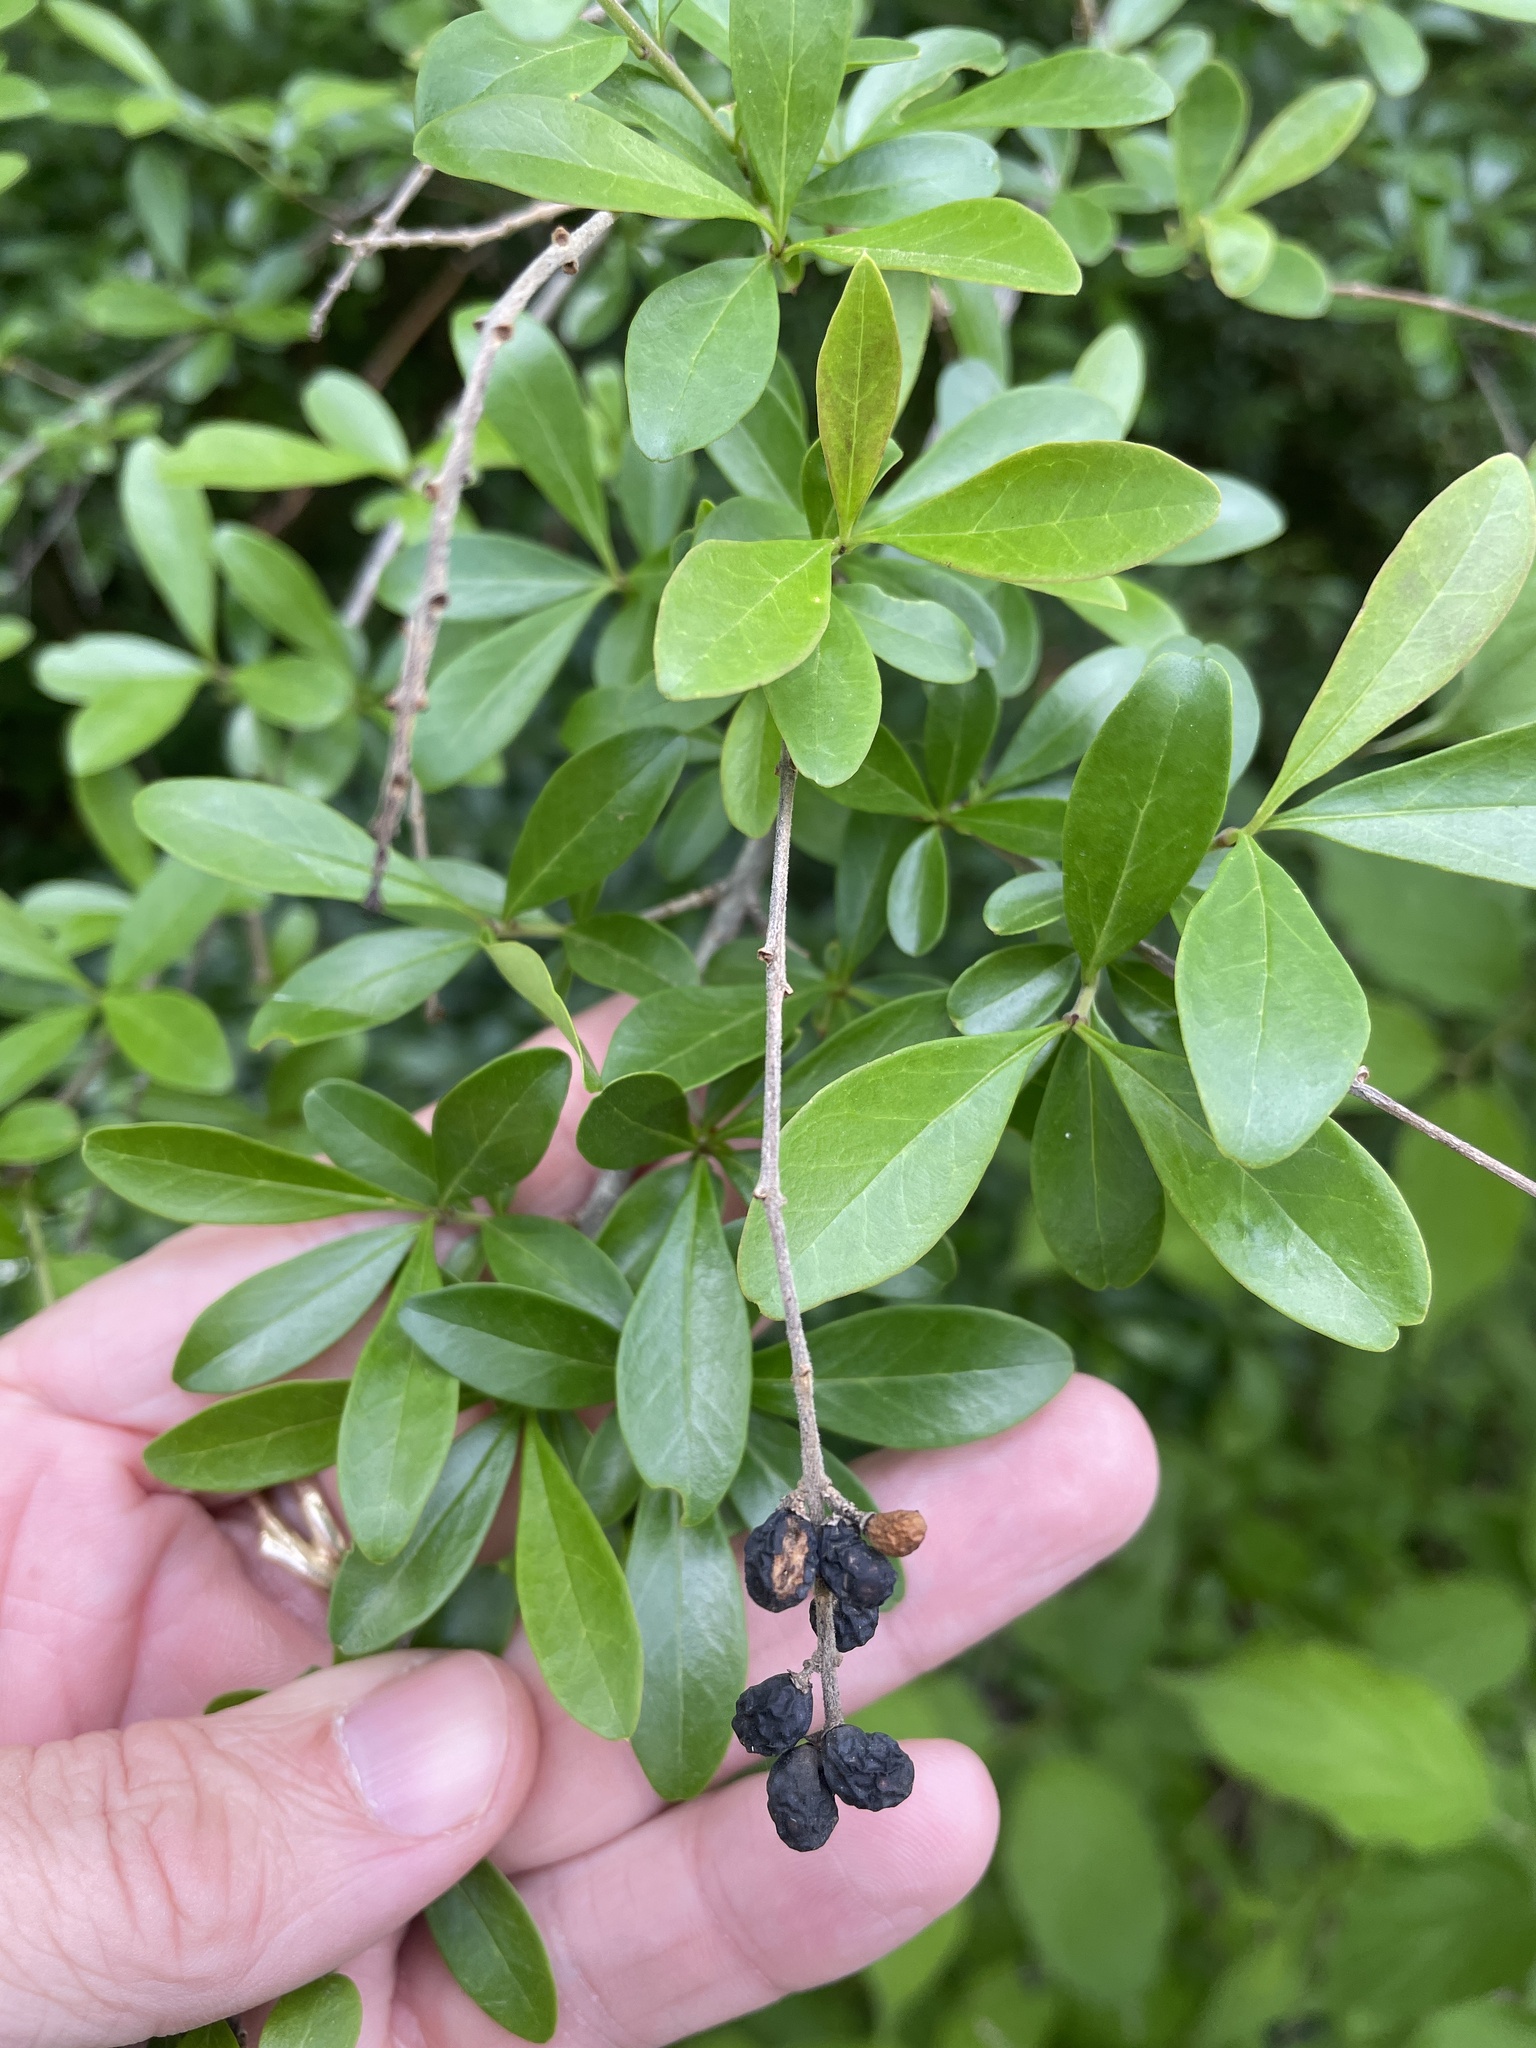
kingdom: Plantae
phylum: Tracheophyta
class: Magnoliopsida
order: Lamiales
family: Oleaceae
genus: Ligustrum
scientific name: Ligustrum quihoui
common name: Waxyleaf privet
